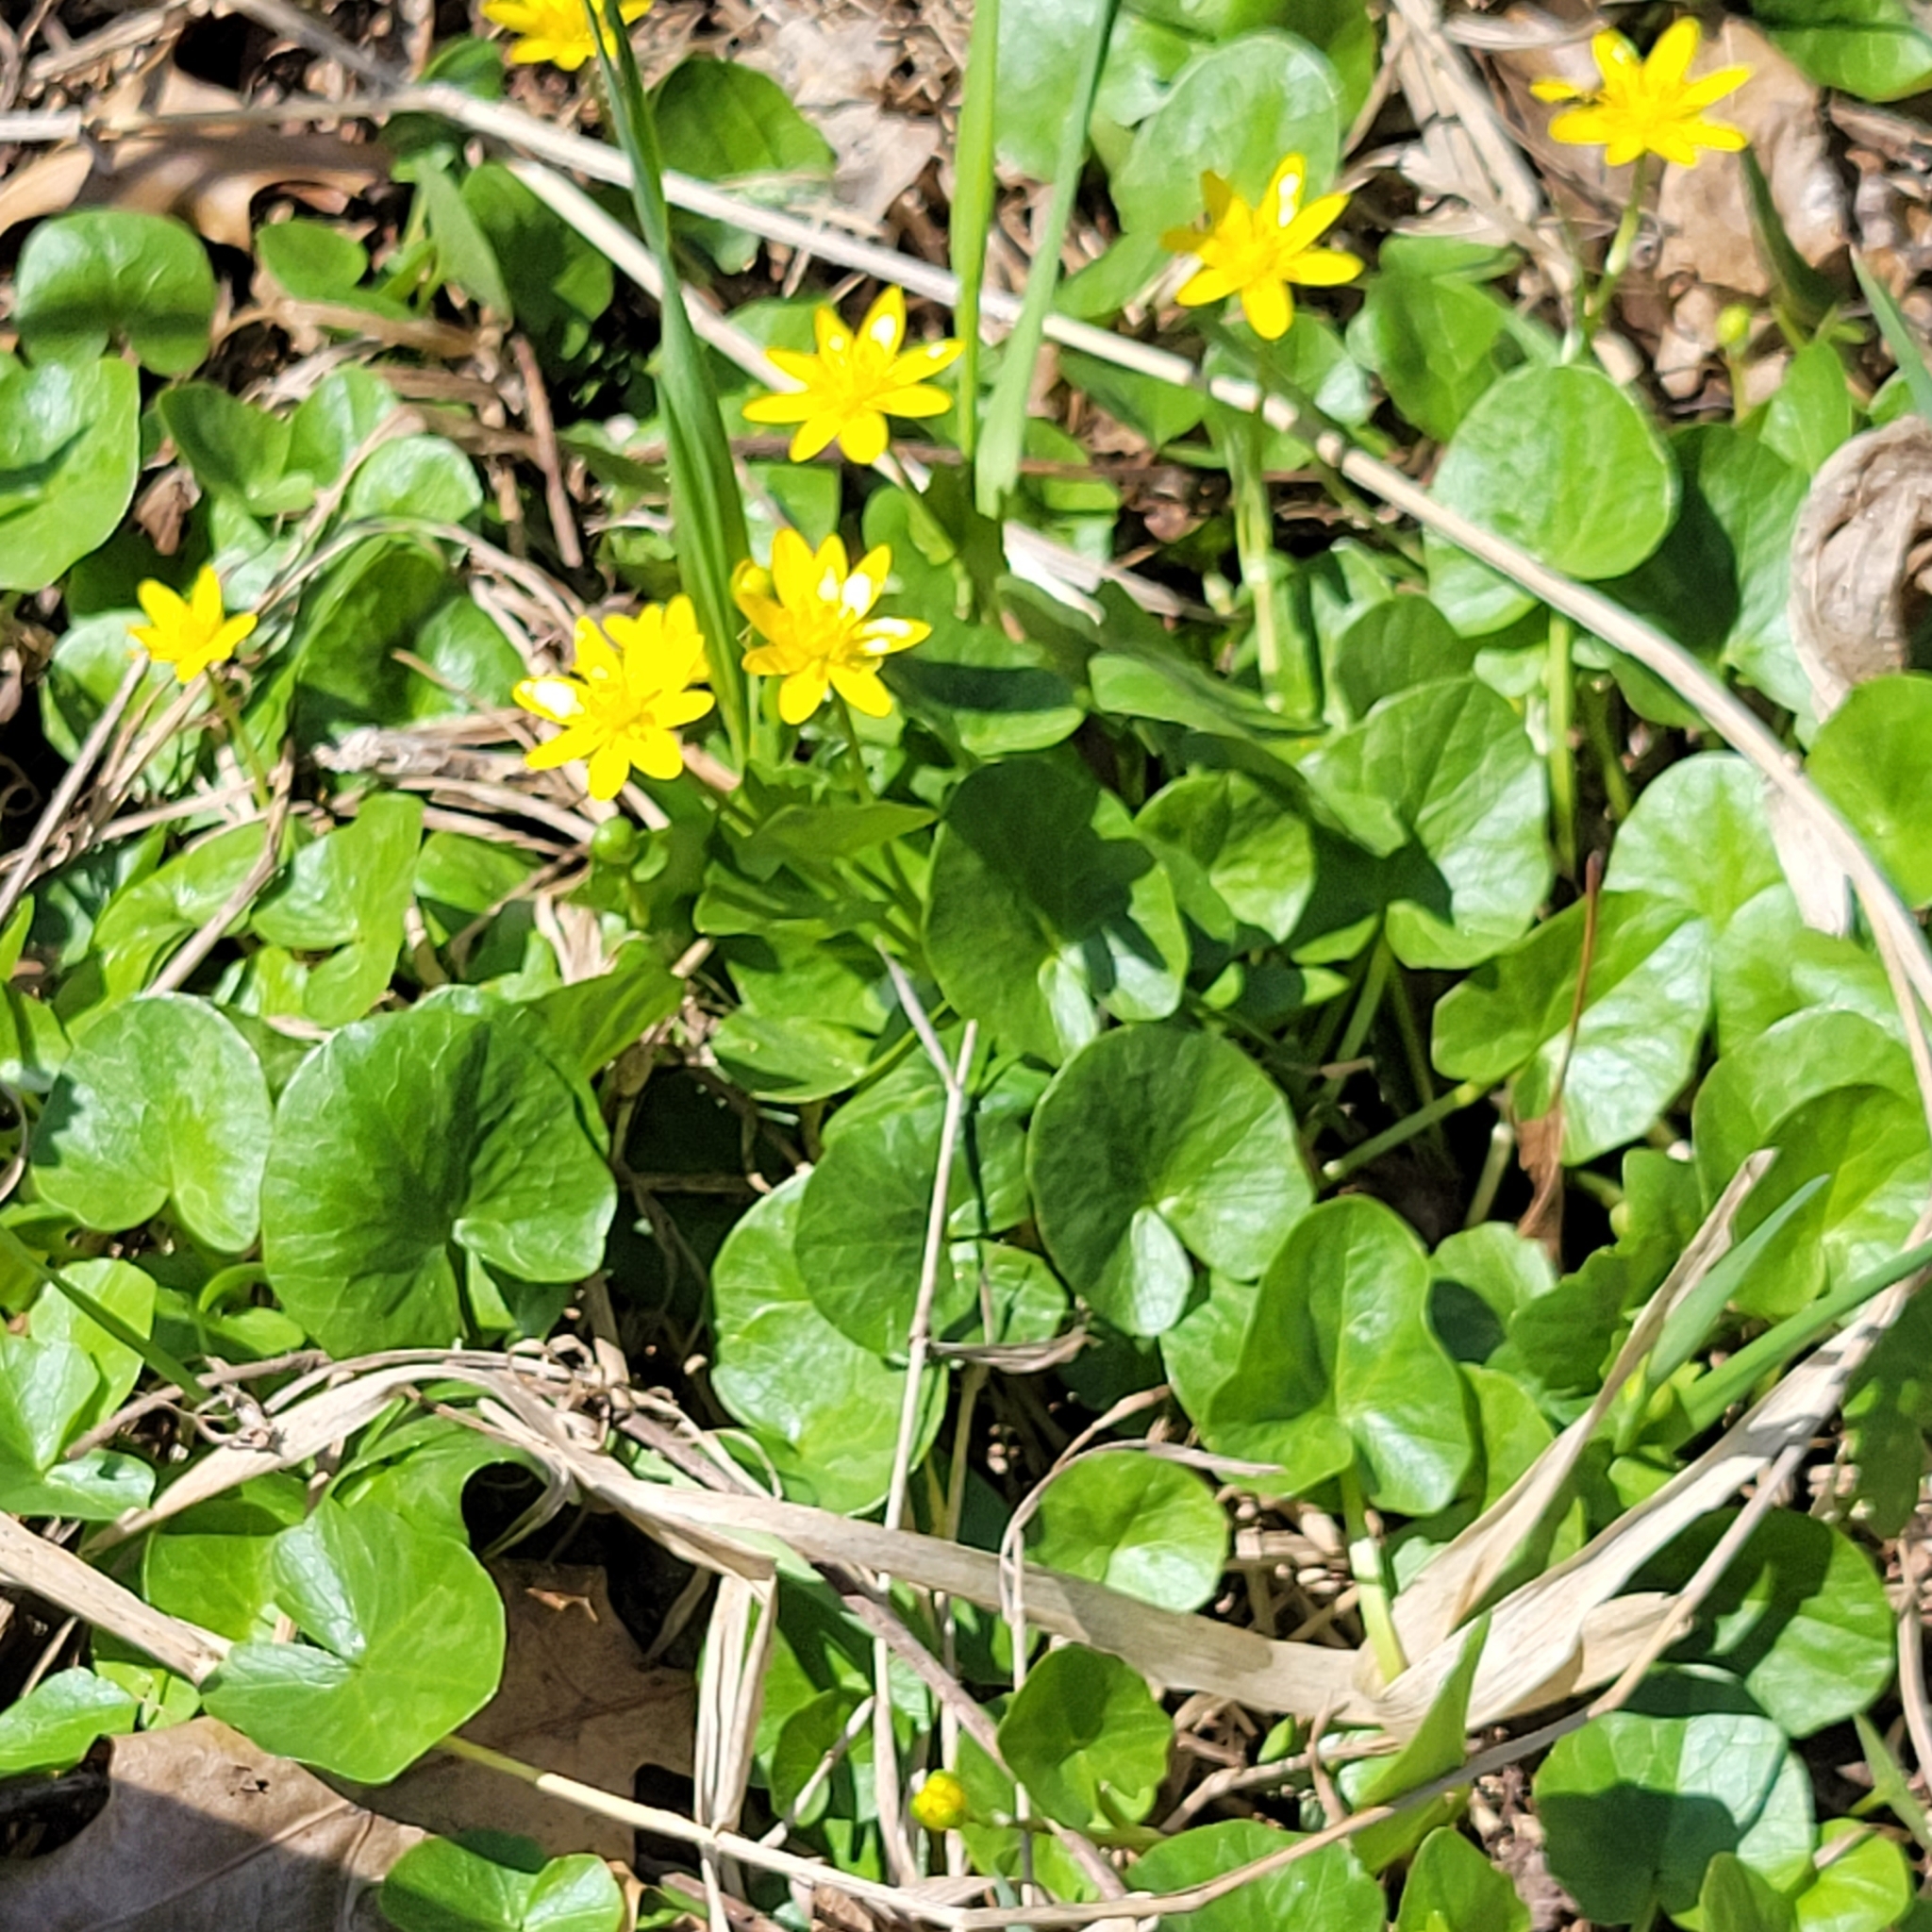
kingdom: Plantae
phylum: Tracheophyta
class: Magnoliopsida
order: Ranunculales
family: Ranunculaceae
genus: Ficaria
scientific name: Ficaria verna
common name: Lesser celandine
